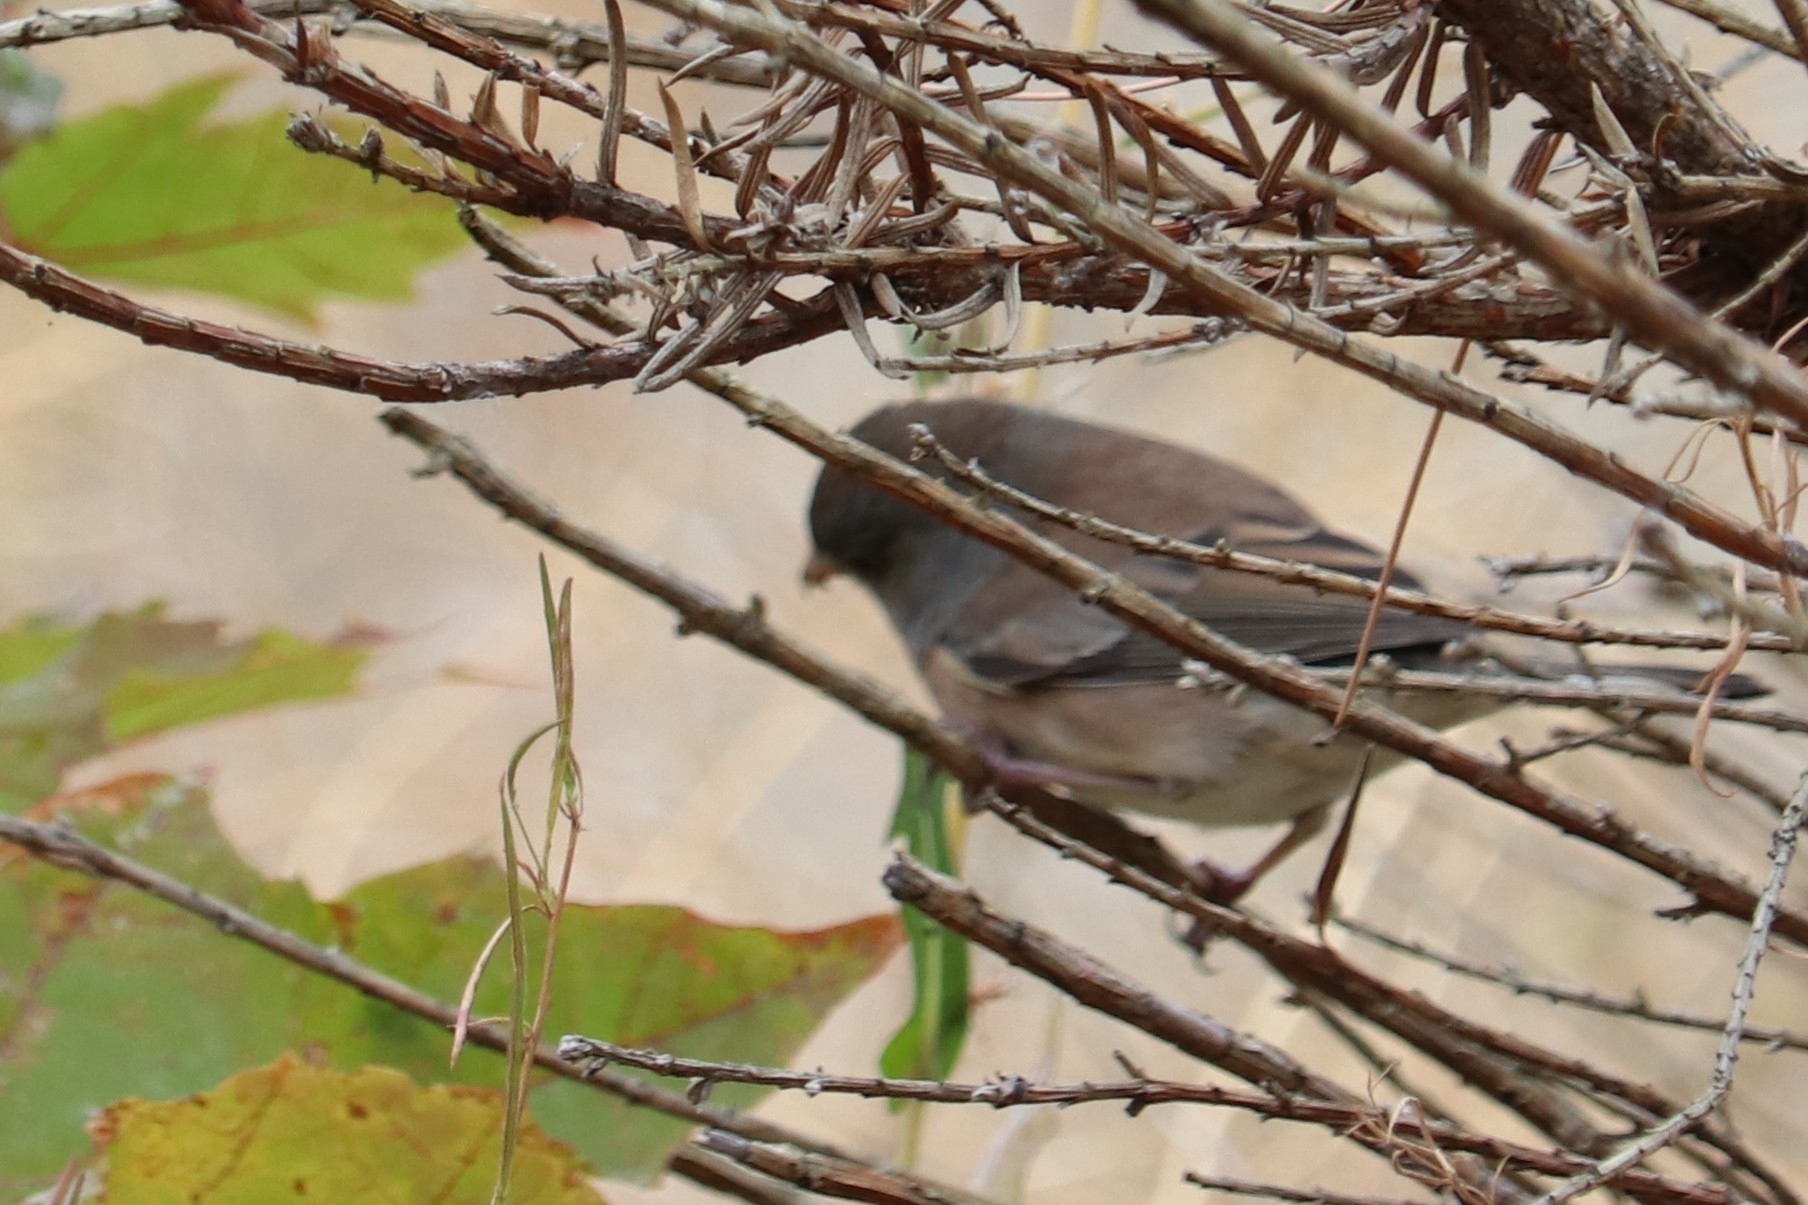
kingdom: Animalia
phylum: Chordata
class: Aves
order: Passeriformes
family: Passerellidae
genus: Junco
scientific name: Junco hyemalis
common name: Dark-eyed junco
